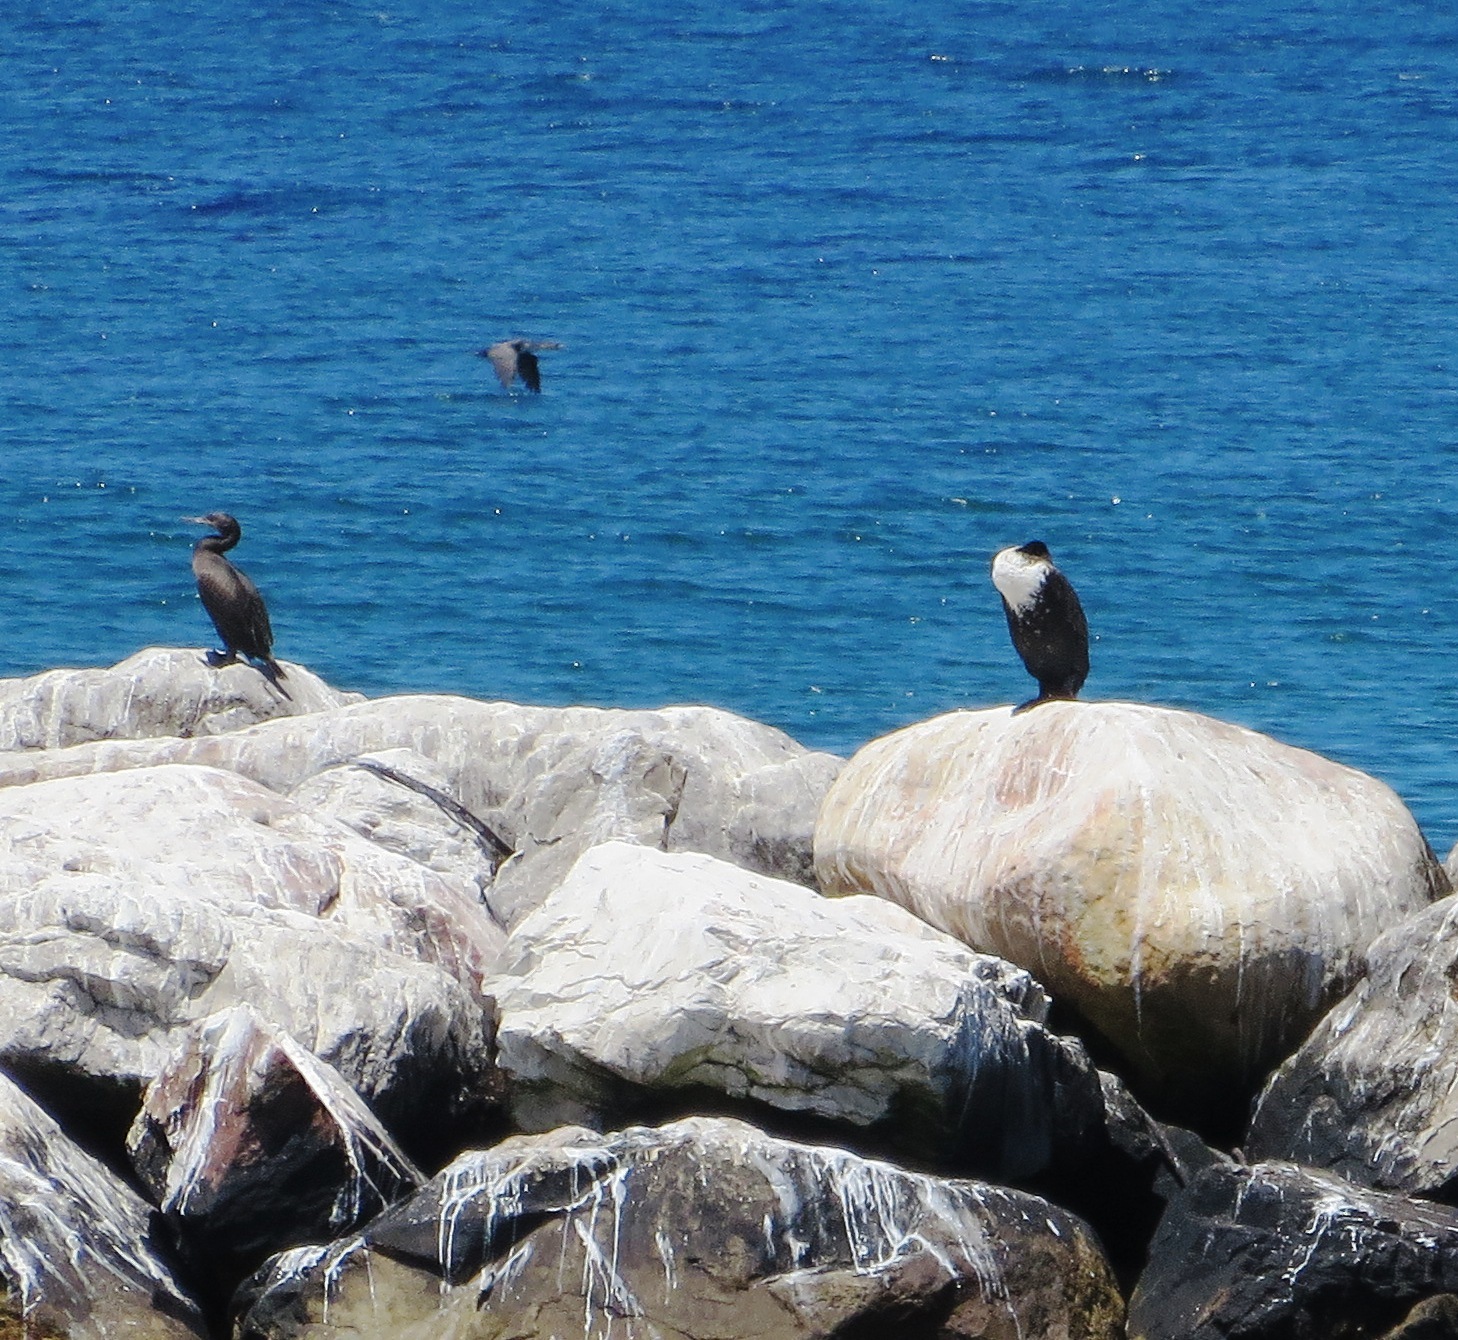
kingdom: Animalia
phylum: Chordata
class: Aves
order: Suliformes
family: Phalacrocoracidae
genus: Phalacrocorax
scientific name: Phalacrocorax carbo
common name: Great cormorant
